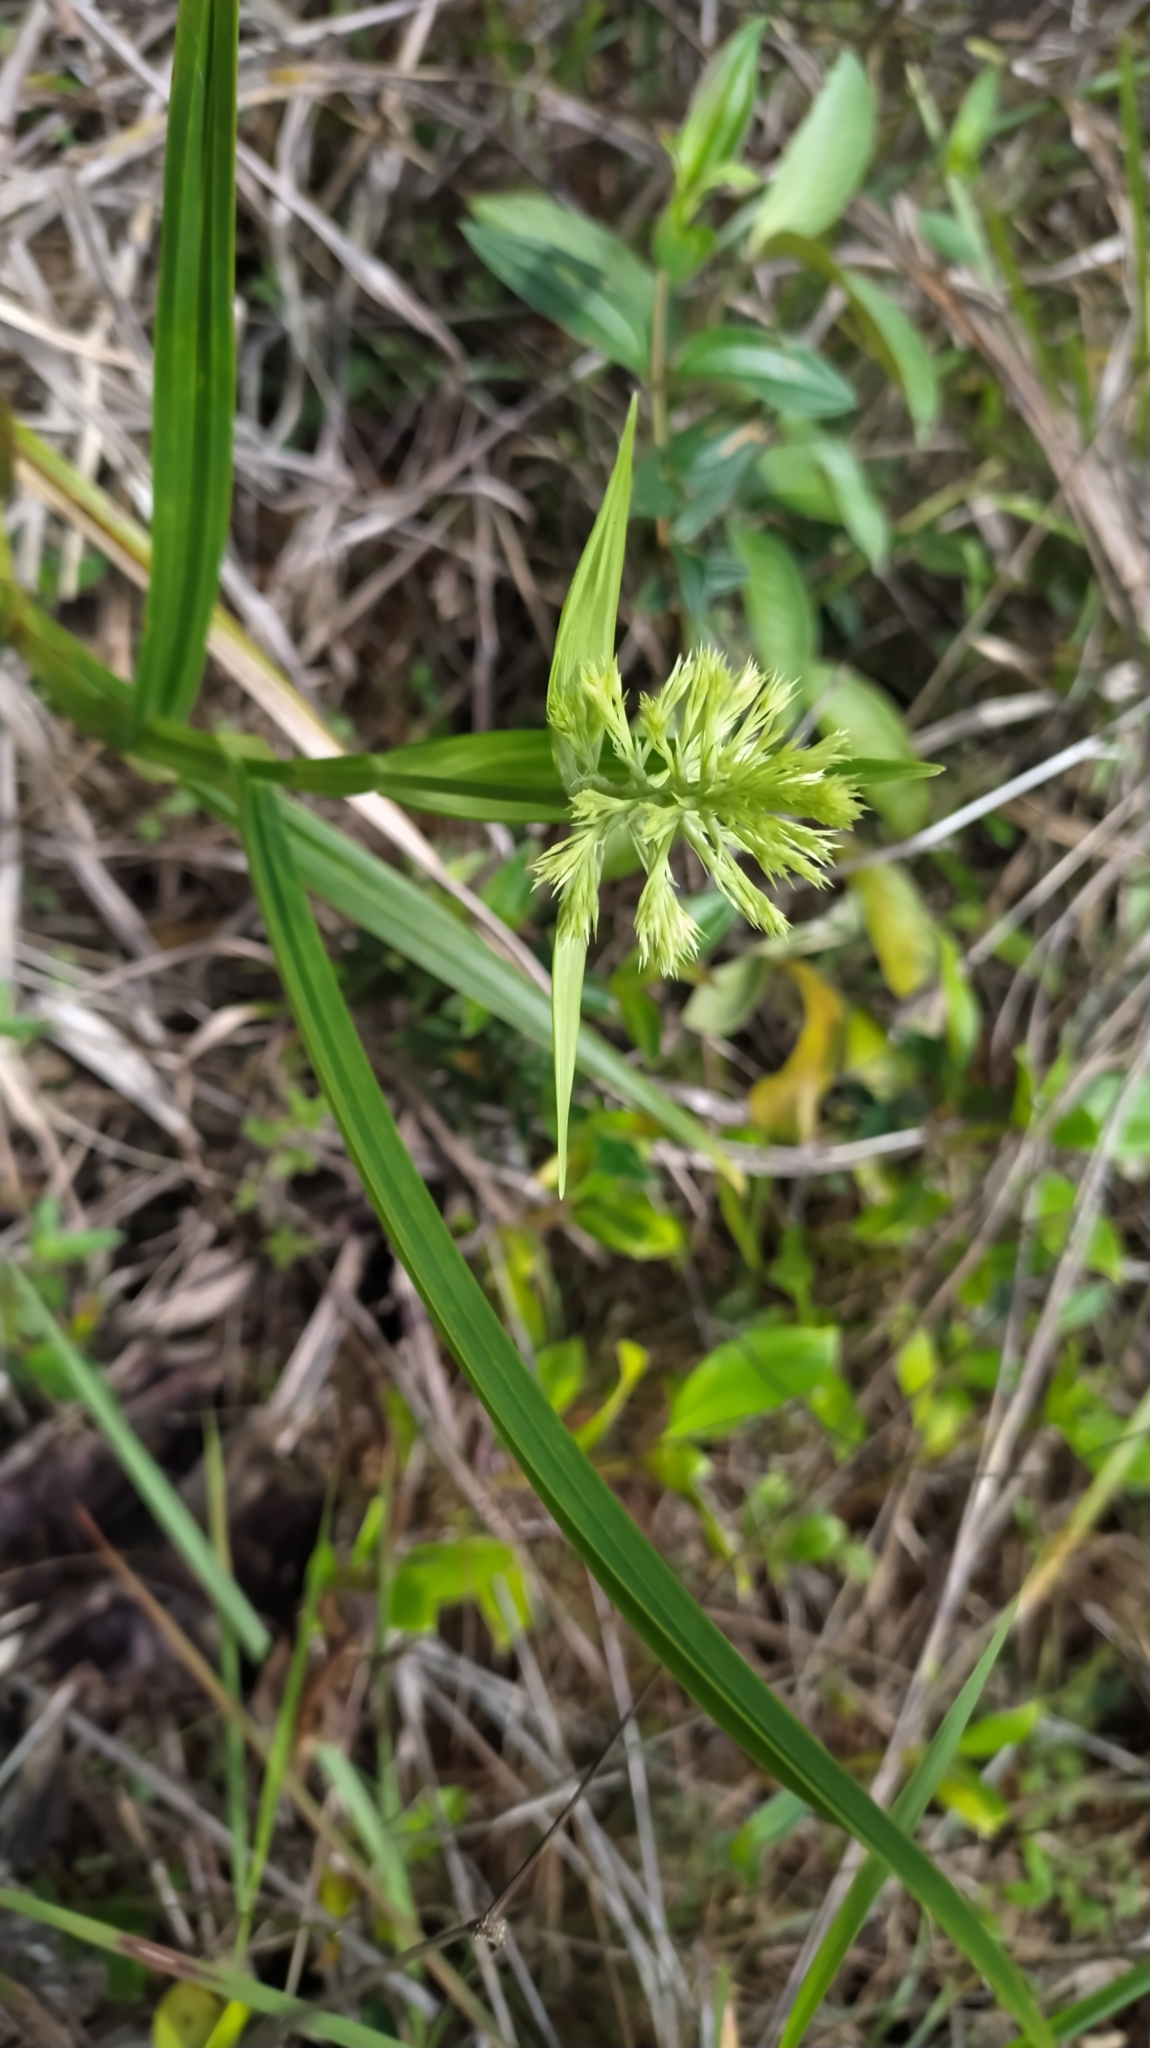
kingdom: Plantae
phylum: Tracheophyta
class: Liliopsida
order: Poales
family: Cyperaceae
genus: Scleria
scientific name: Scleria cyperina
